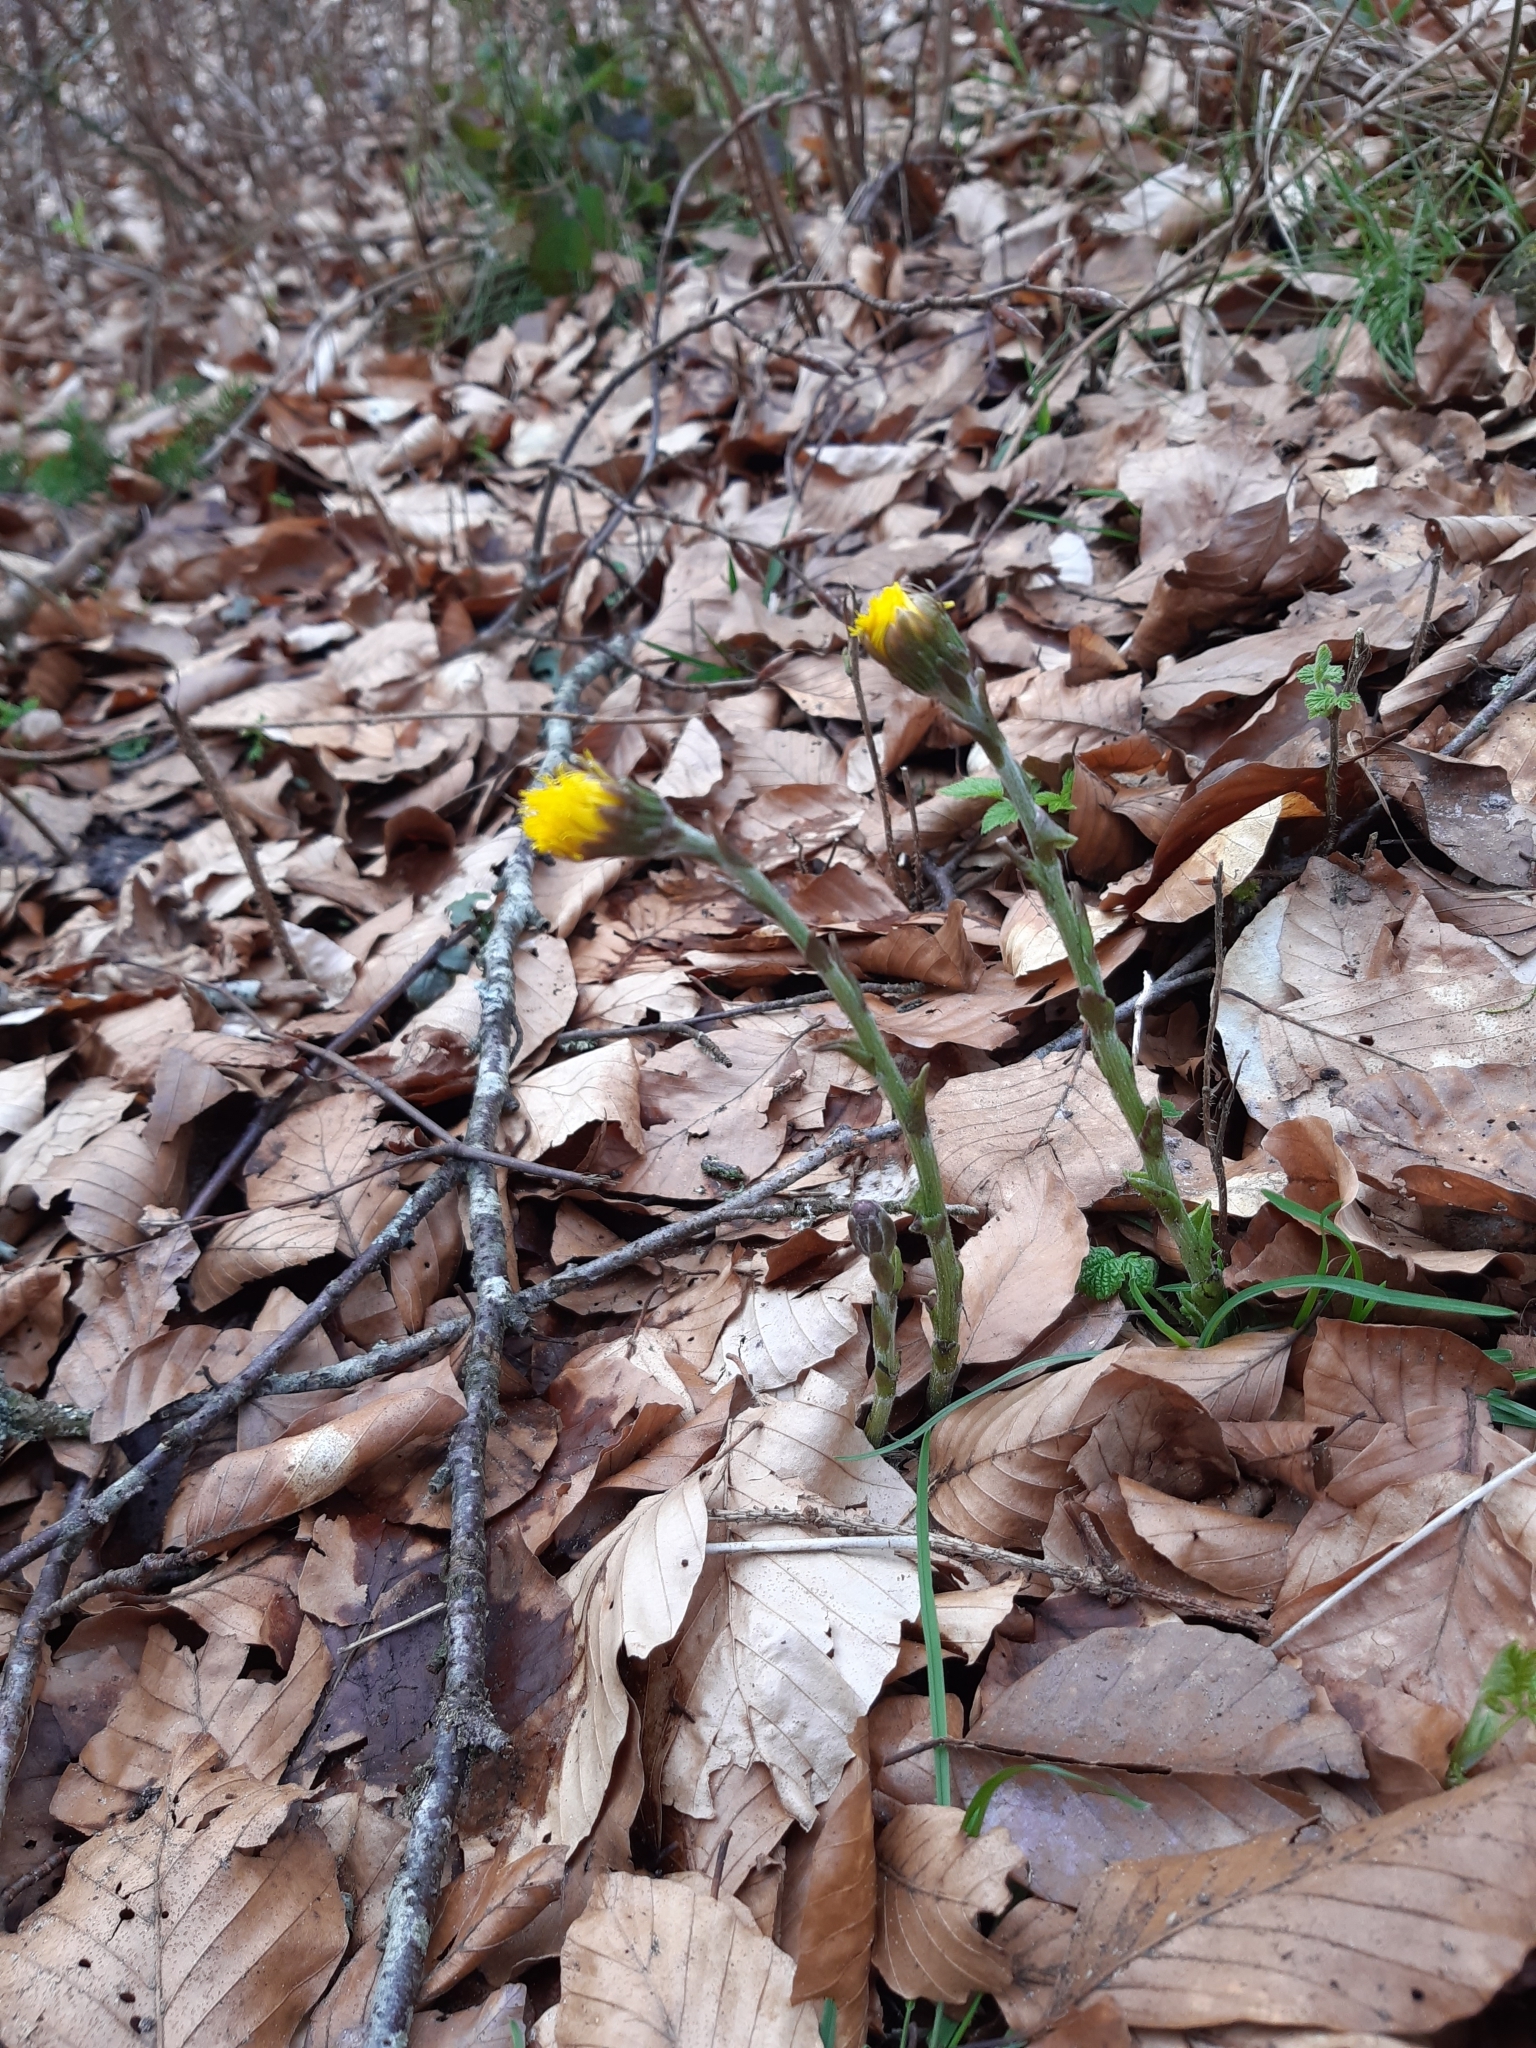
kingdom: Plantae
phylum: Tracheophyta
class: Magnoliopsida
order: Asterales
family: Asteraceae
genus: Tussilago
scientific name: Tussilago farfara
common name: Coltsfoot
